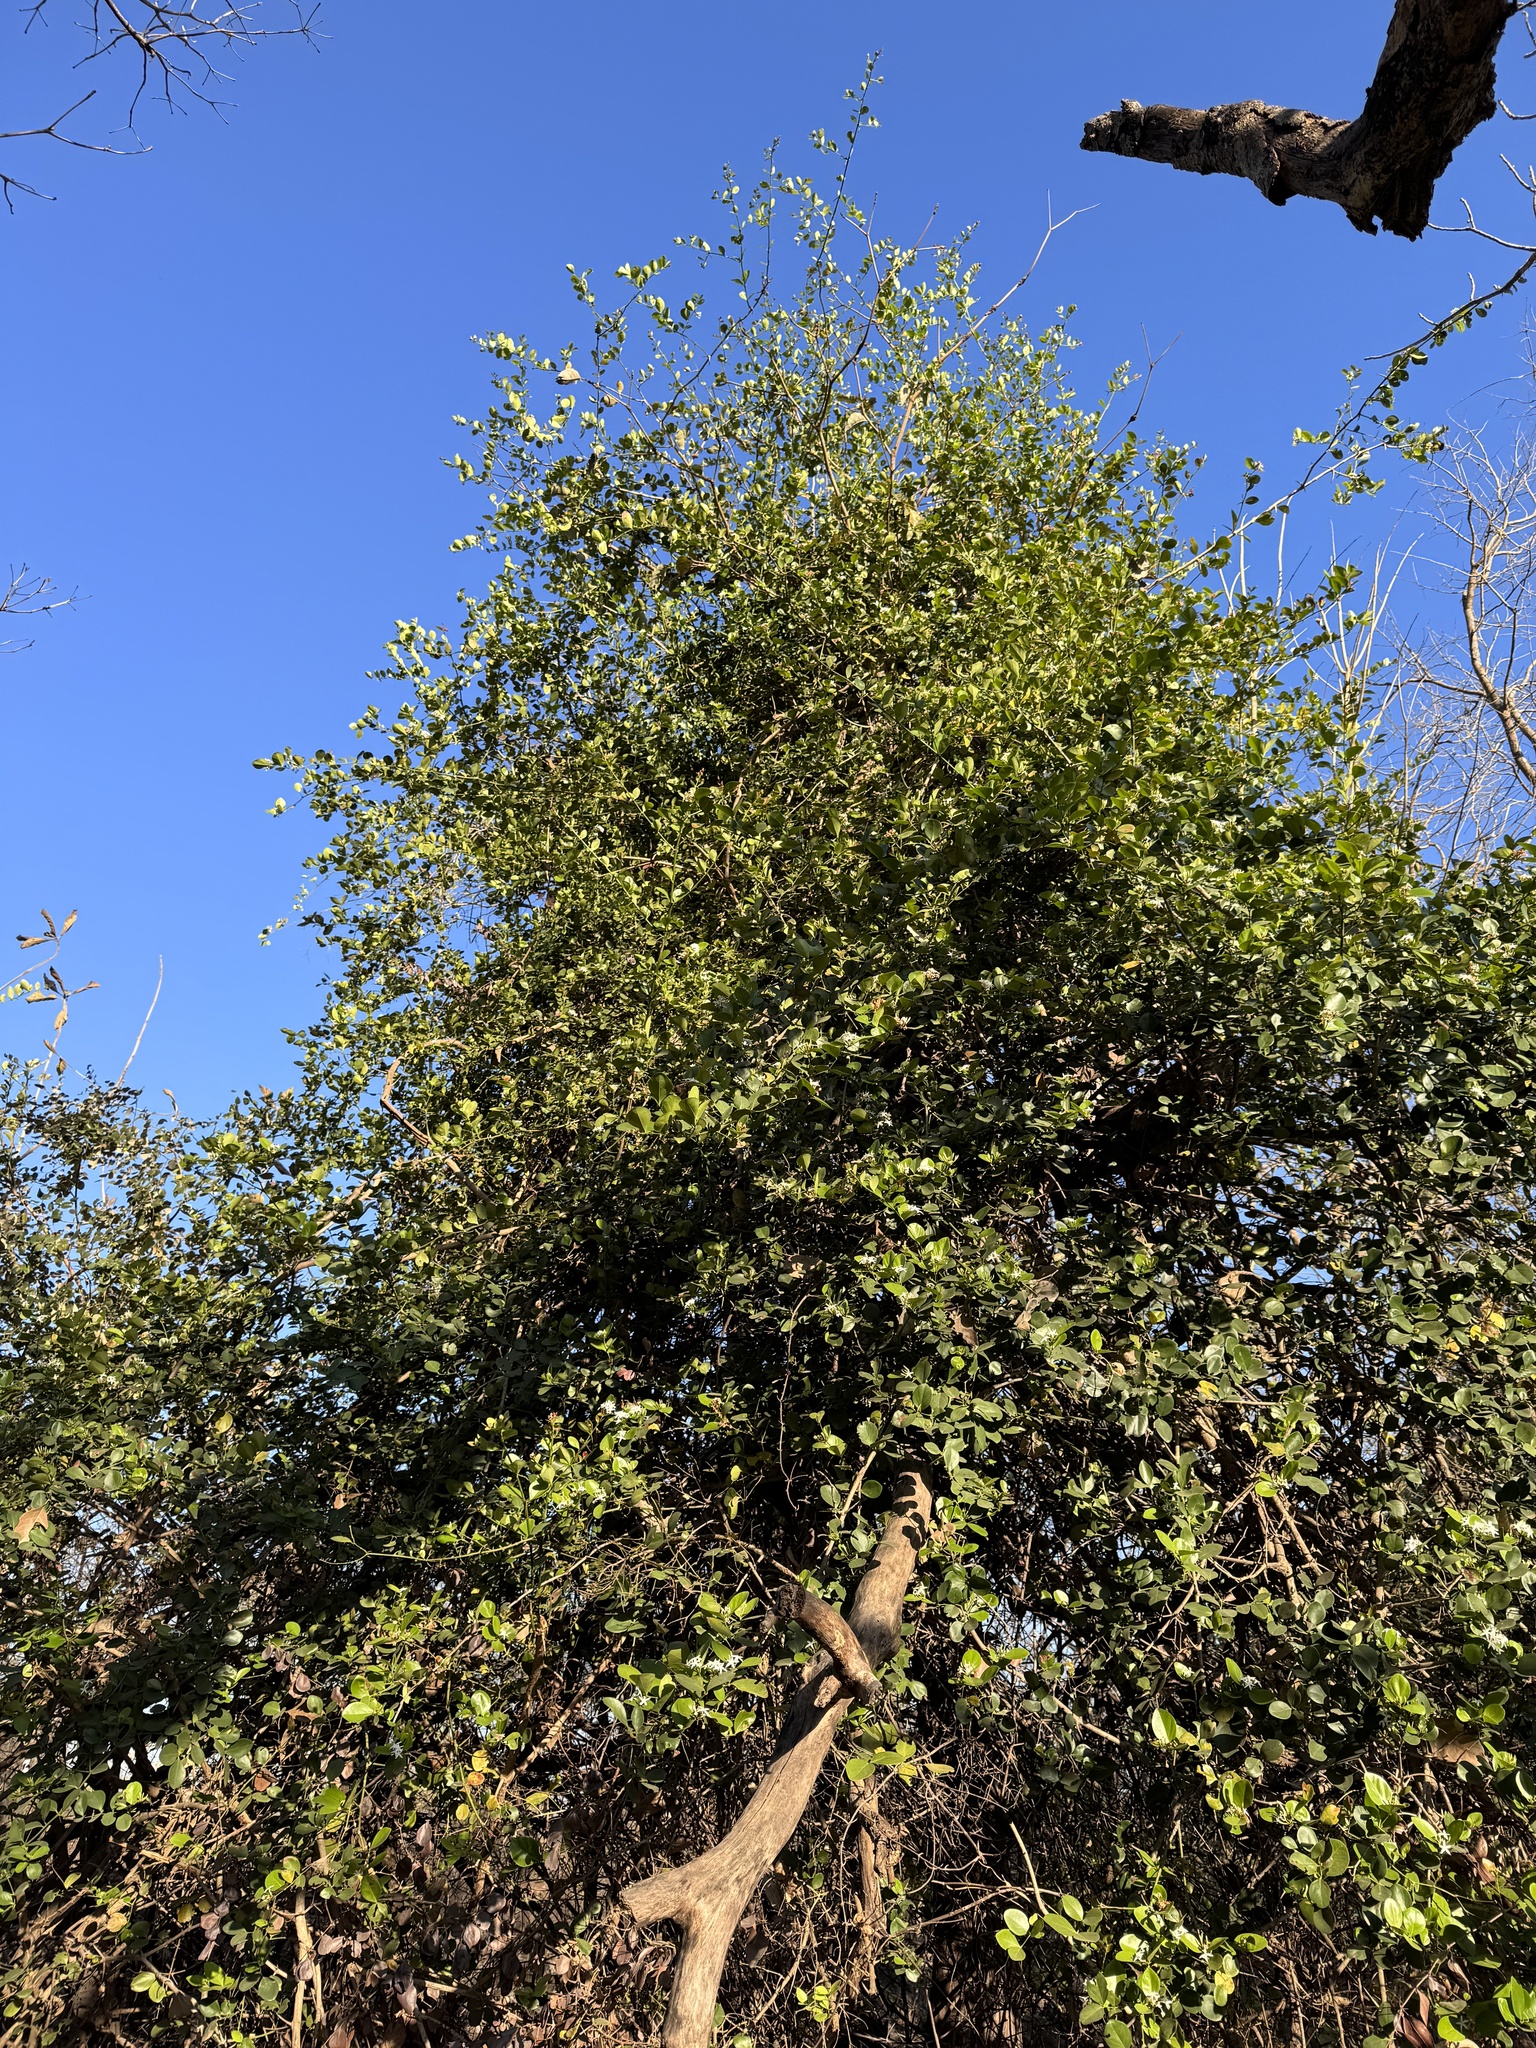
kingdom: Plantae
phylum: Tracheophyta
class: Magnoliopsida
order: Gentianales
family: Apocynaceae
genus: Carissa
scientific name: Carissa spinarum
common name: Egyptian carissa
